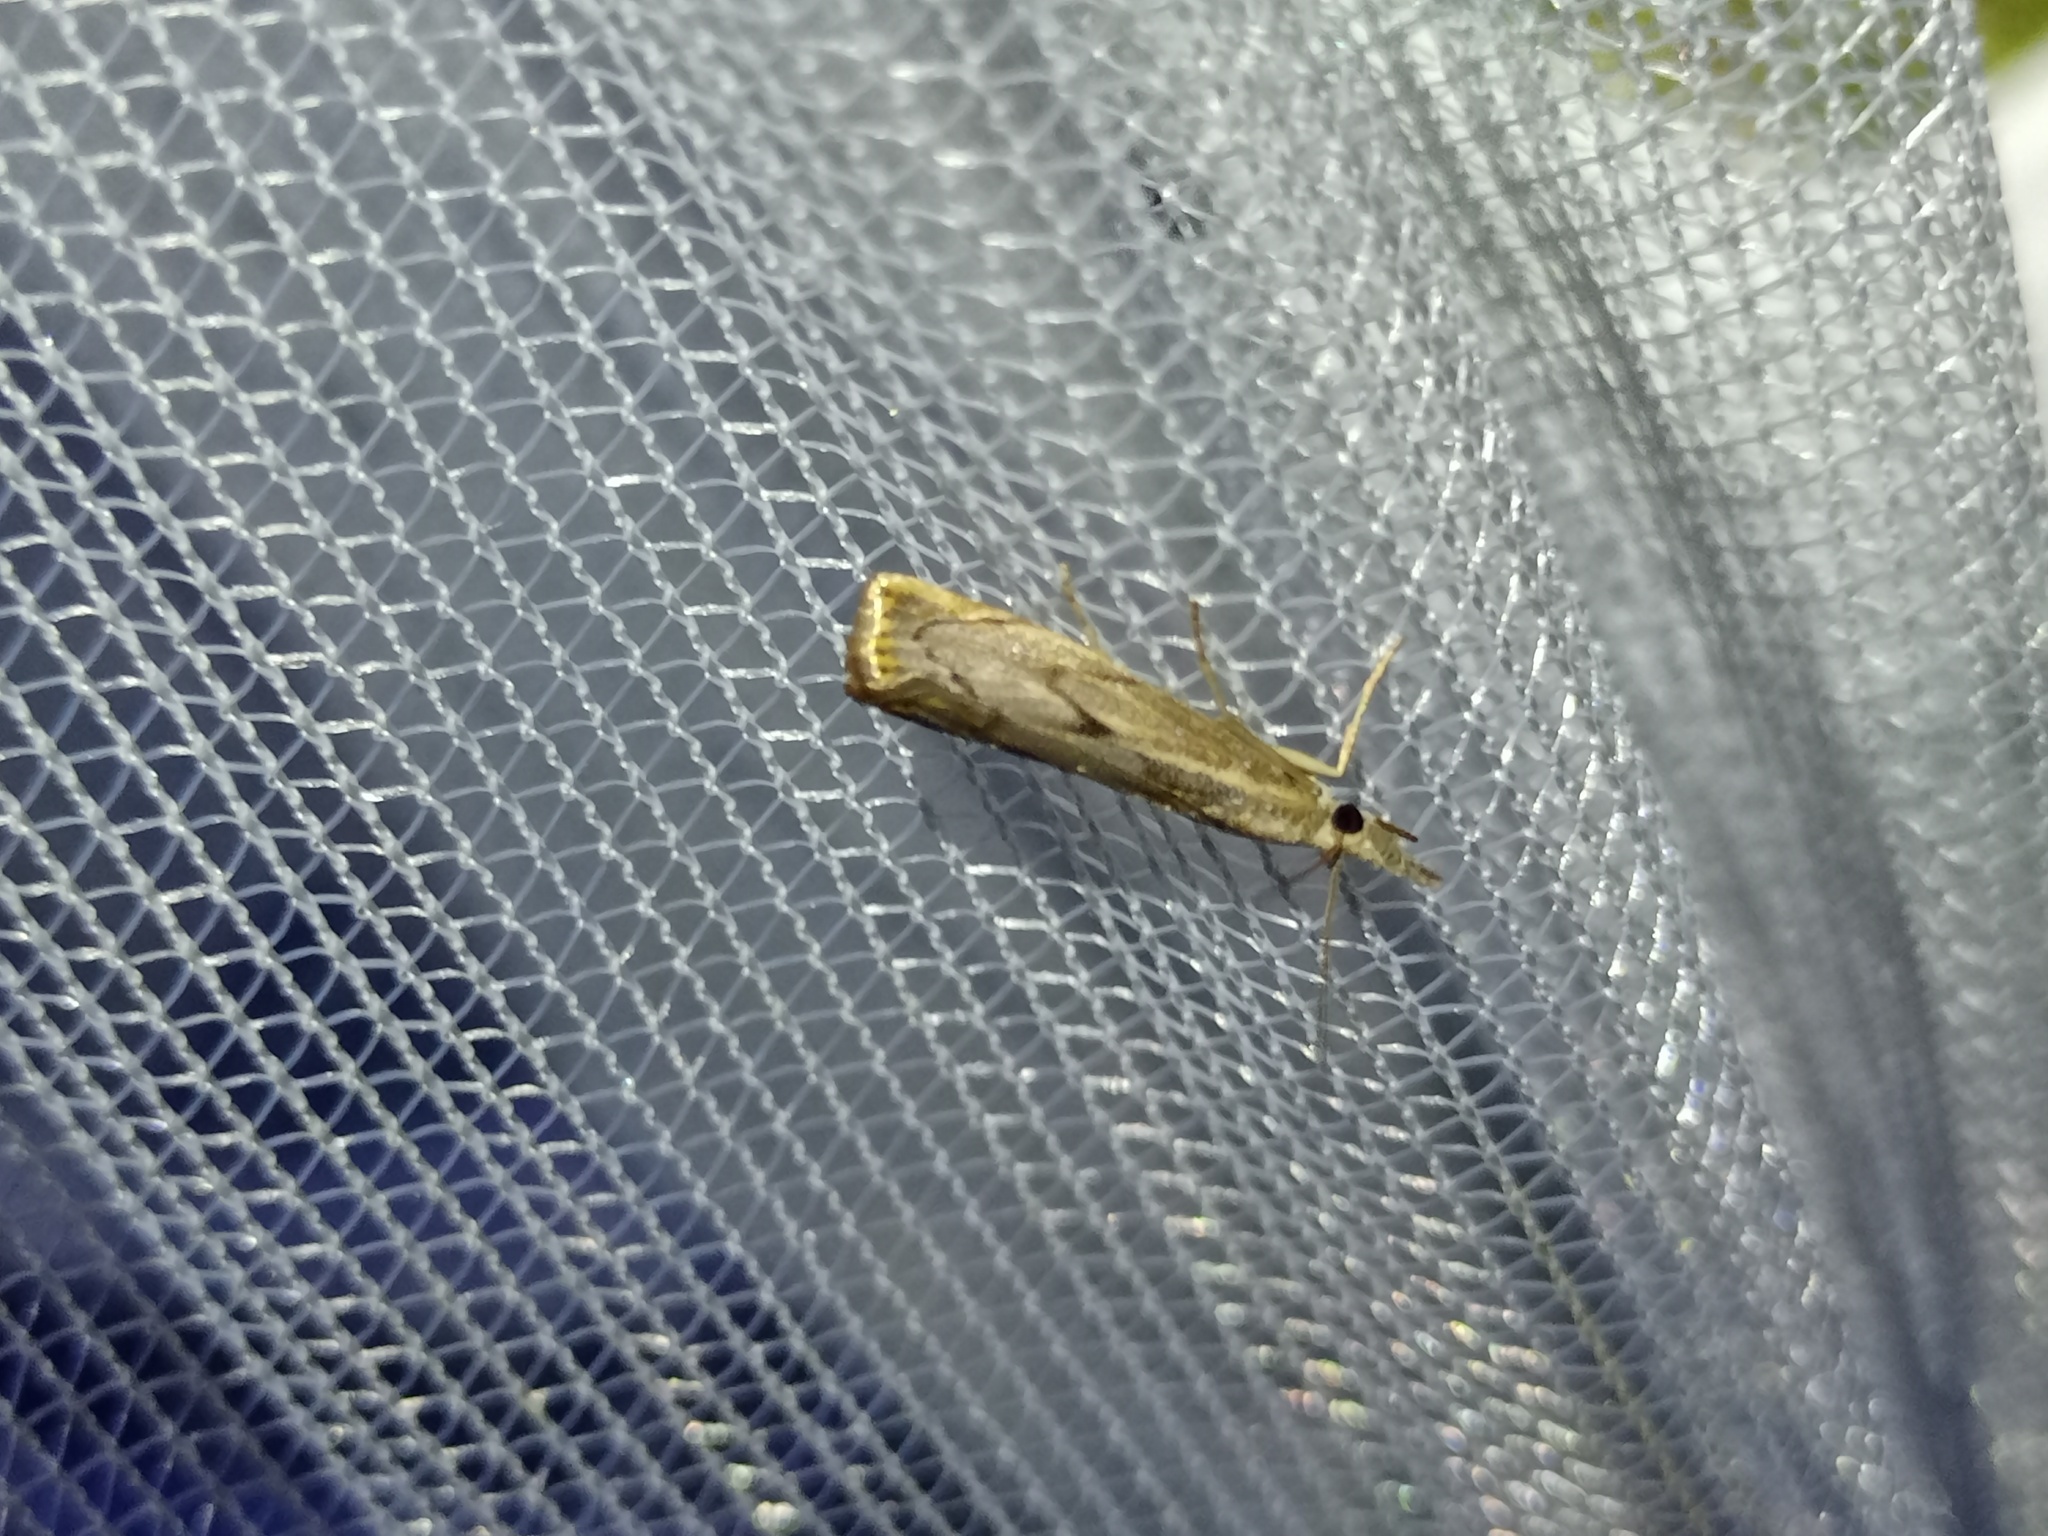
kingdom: Animalia
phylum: Arthropoda
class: Insecta
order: Lepidoptera
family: Crambidae
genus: Agriphila
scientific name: Agriphila geniculea
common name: Elbow-stripe grass-veneer
